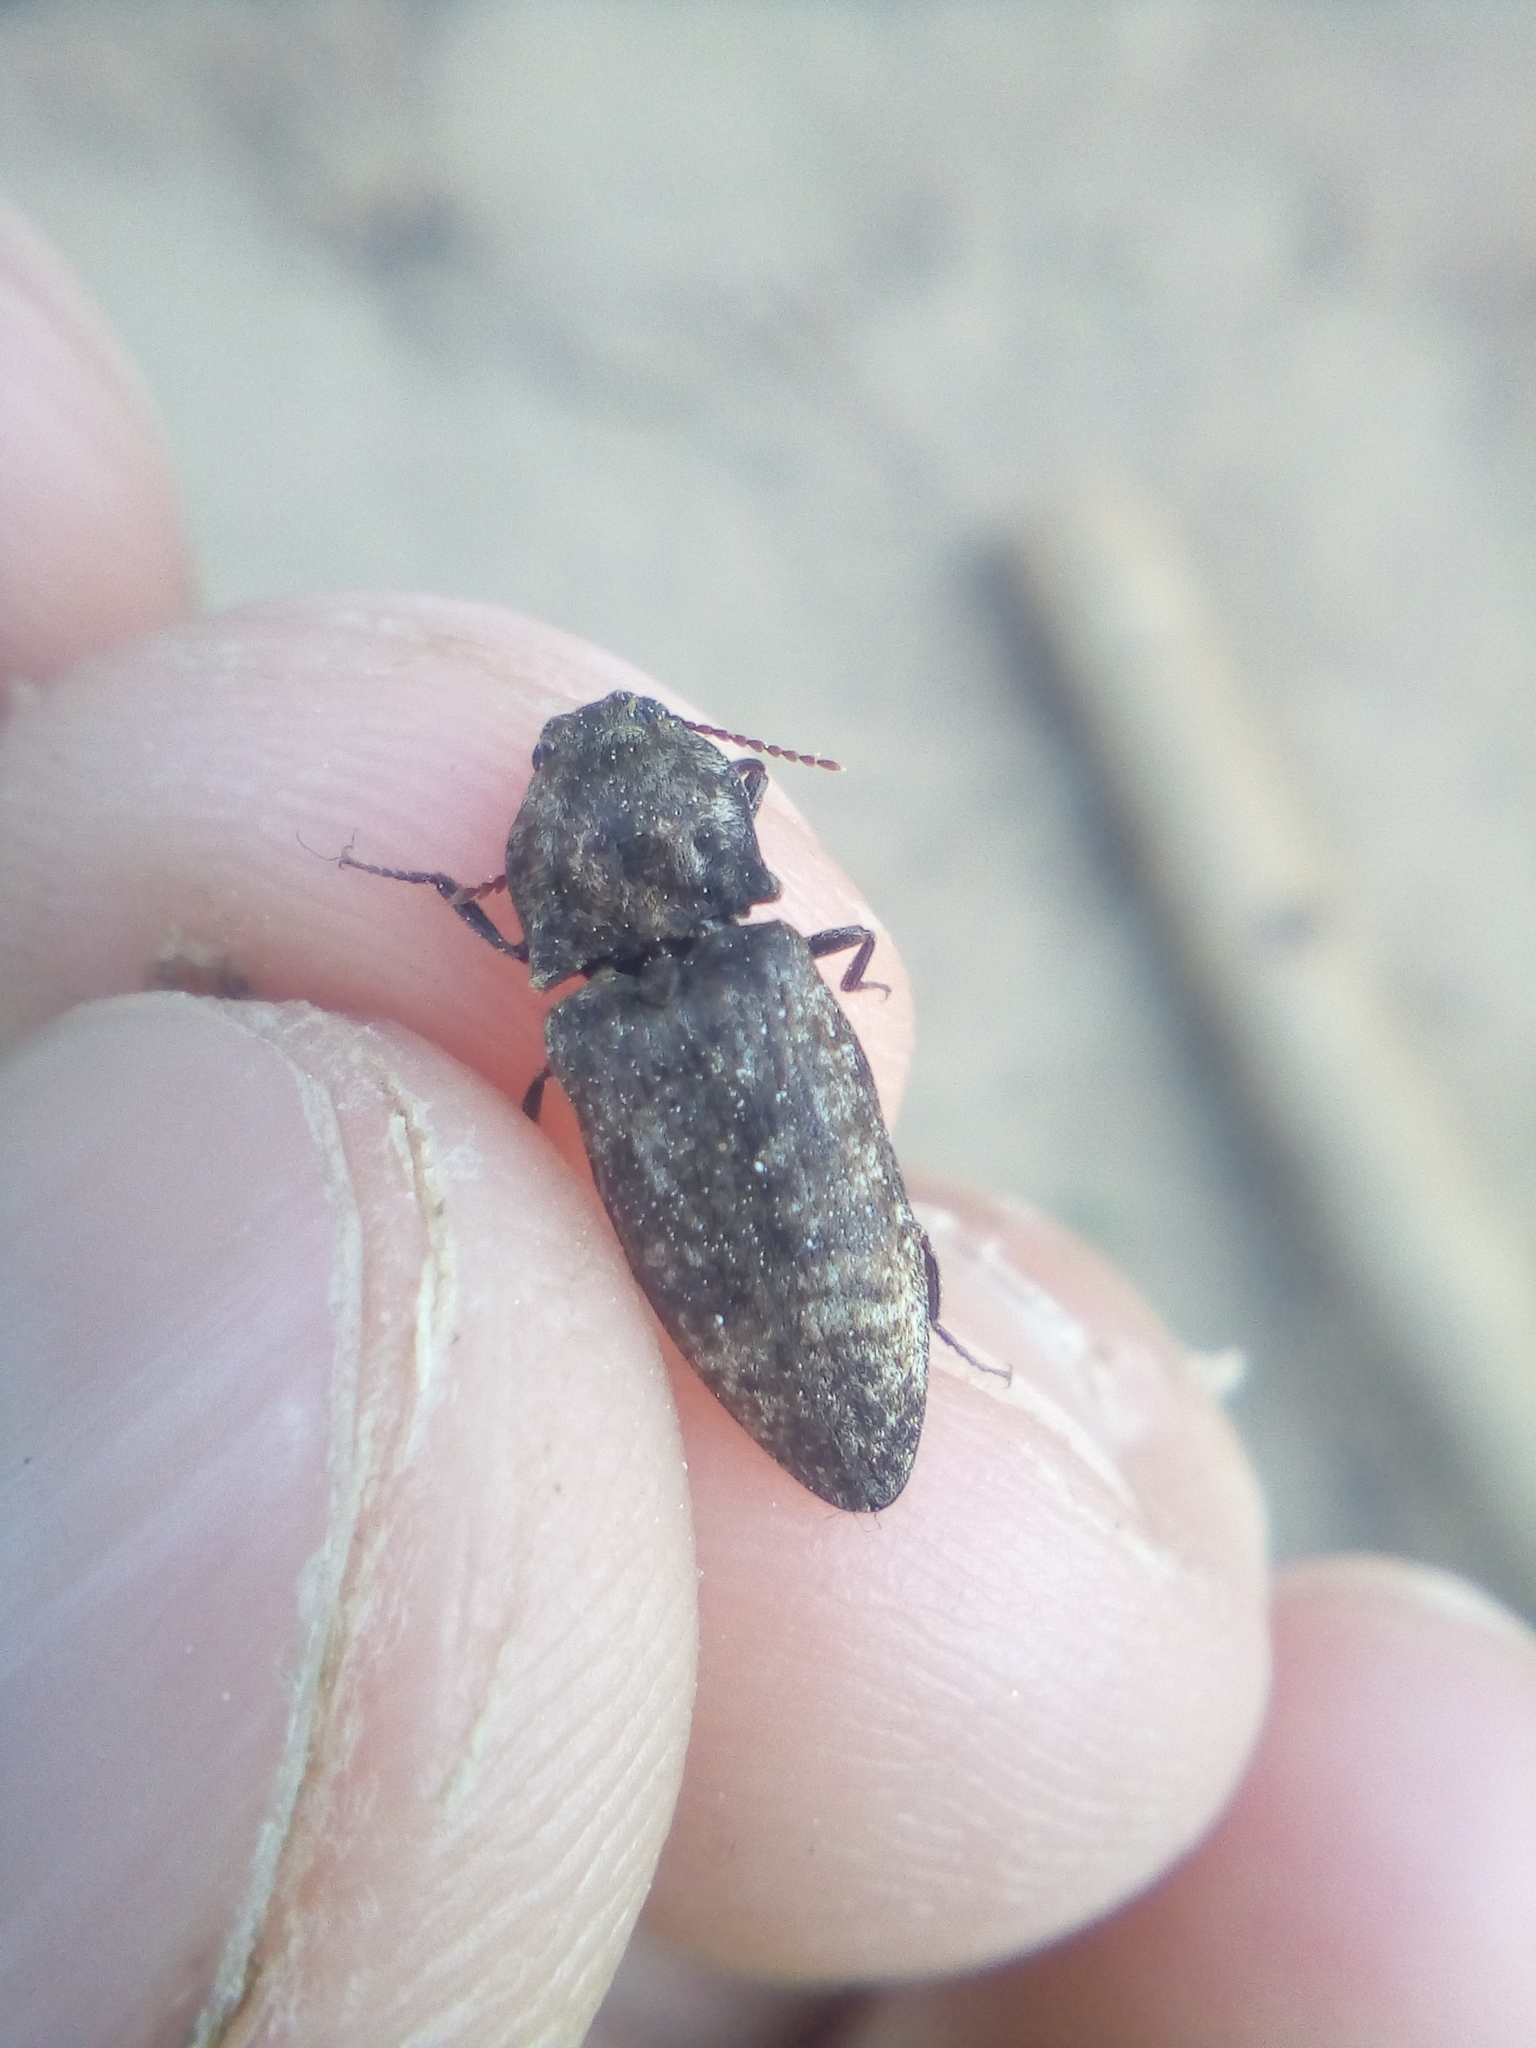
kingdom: Animalia
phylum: Arthropoda
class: Insecta
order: Coleoptera
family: Elateridae
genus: Agrypnus
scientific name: Agrypnus murinus
